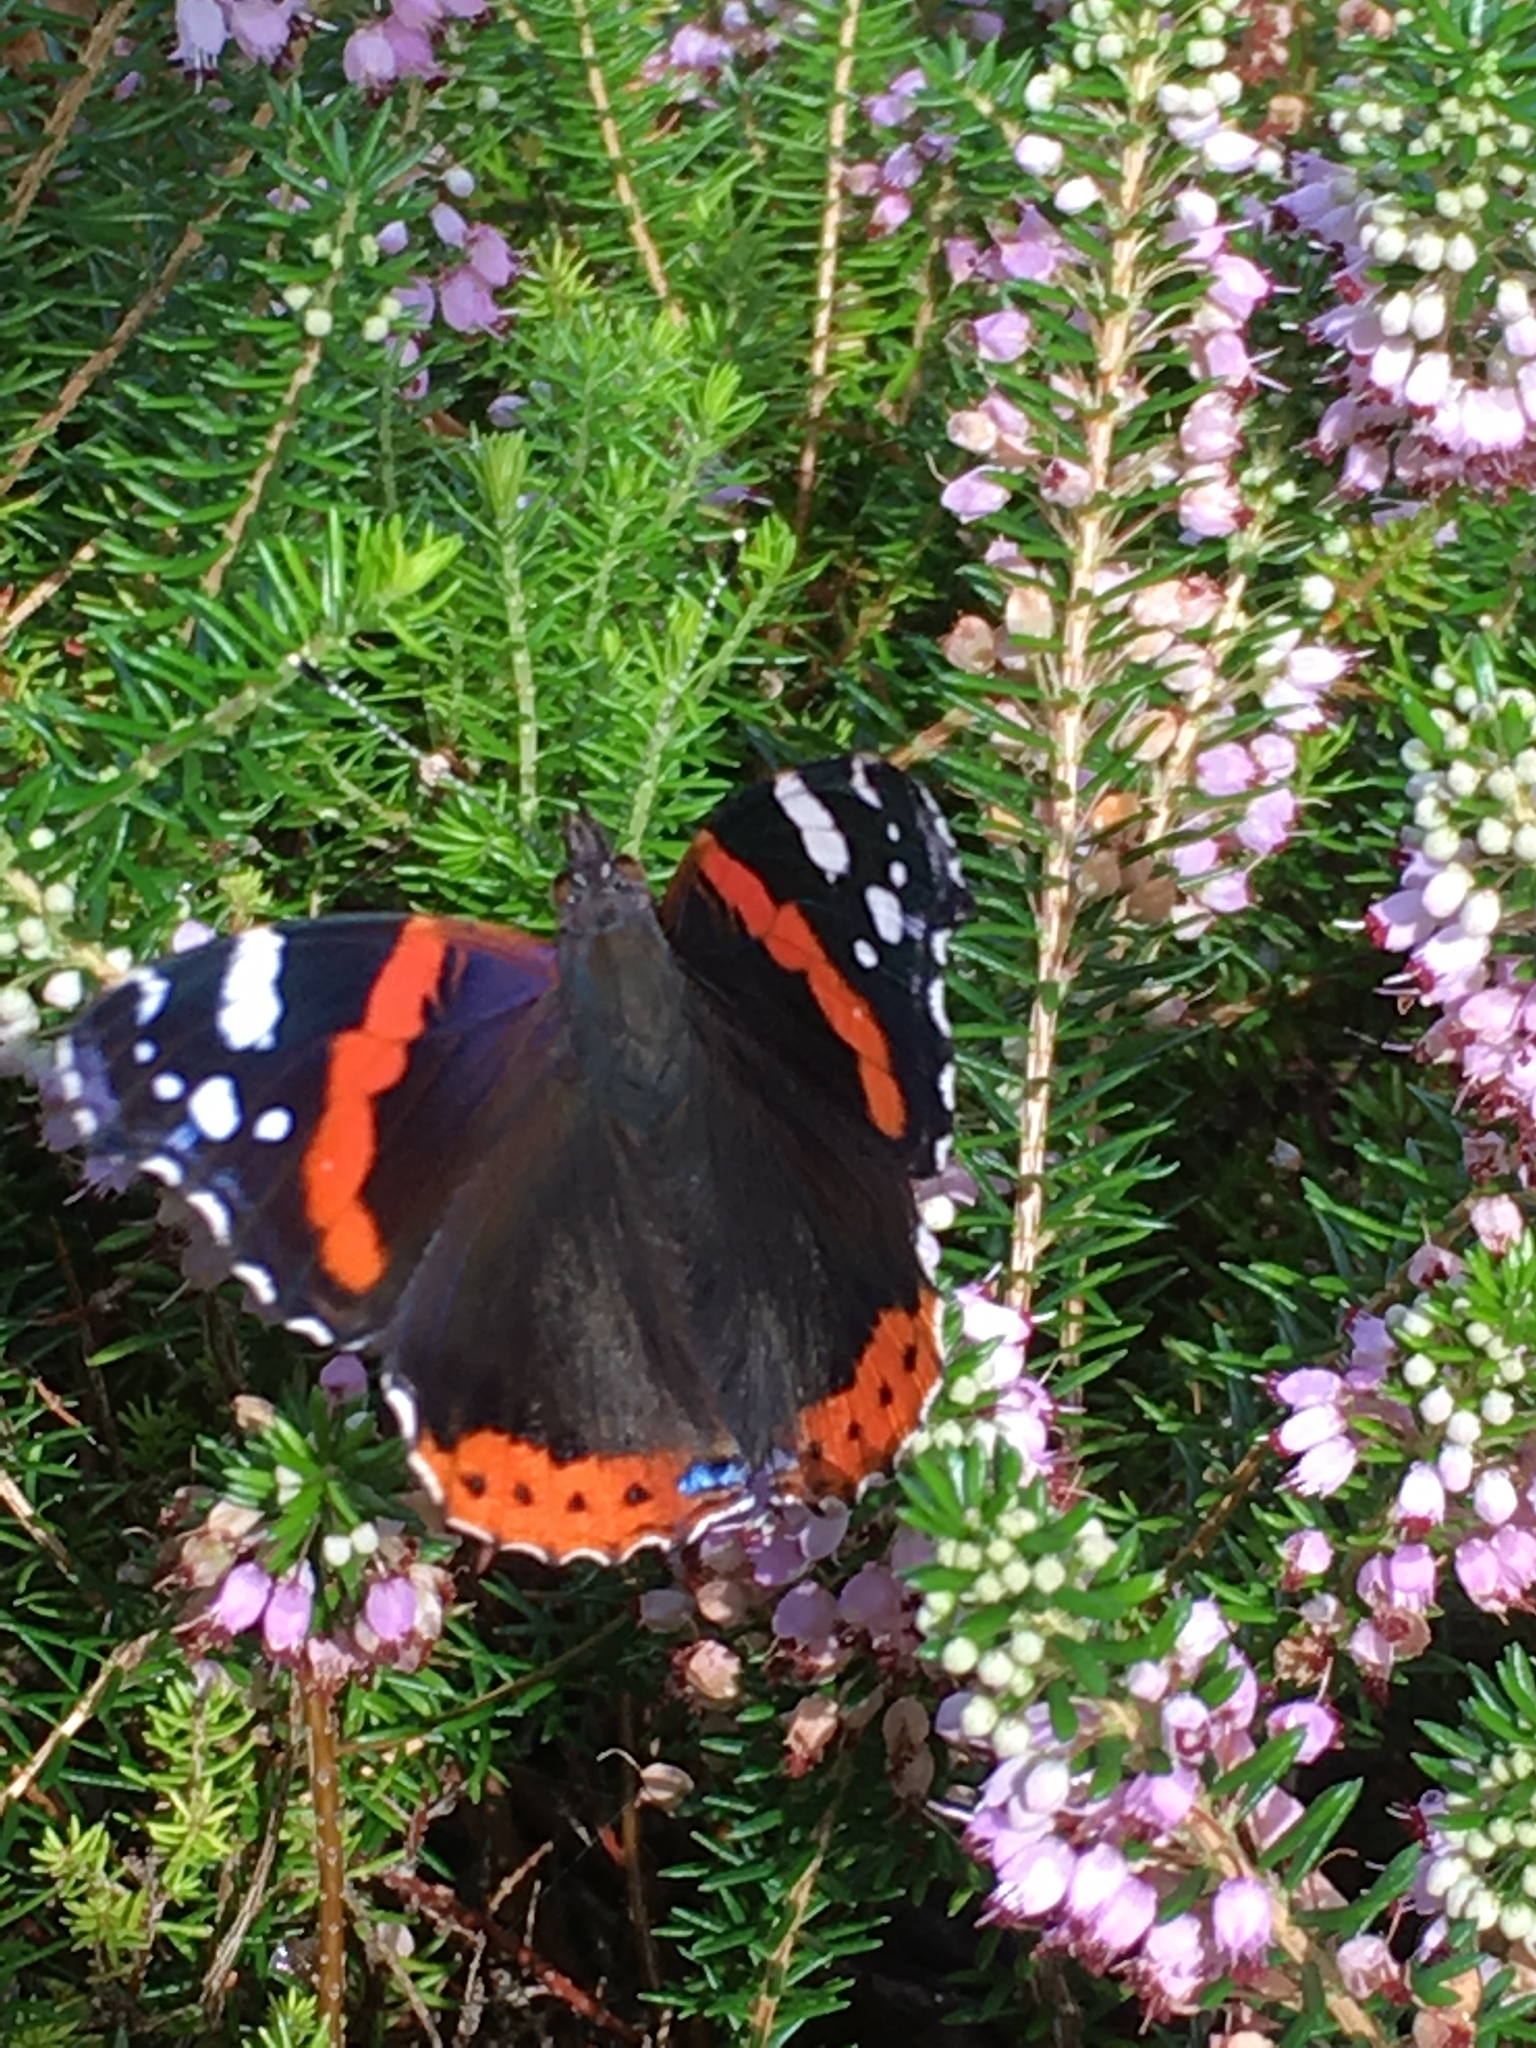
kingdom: Animalia
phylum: Arthropoda
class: Insecta
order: Lepidoptera
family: Nymphalidae
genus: Vanessa
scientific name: Vanessa atalanta
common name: Red admiral
